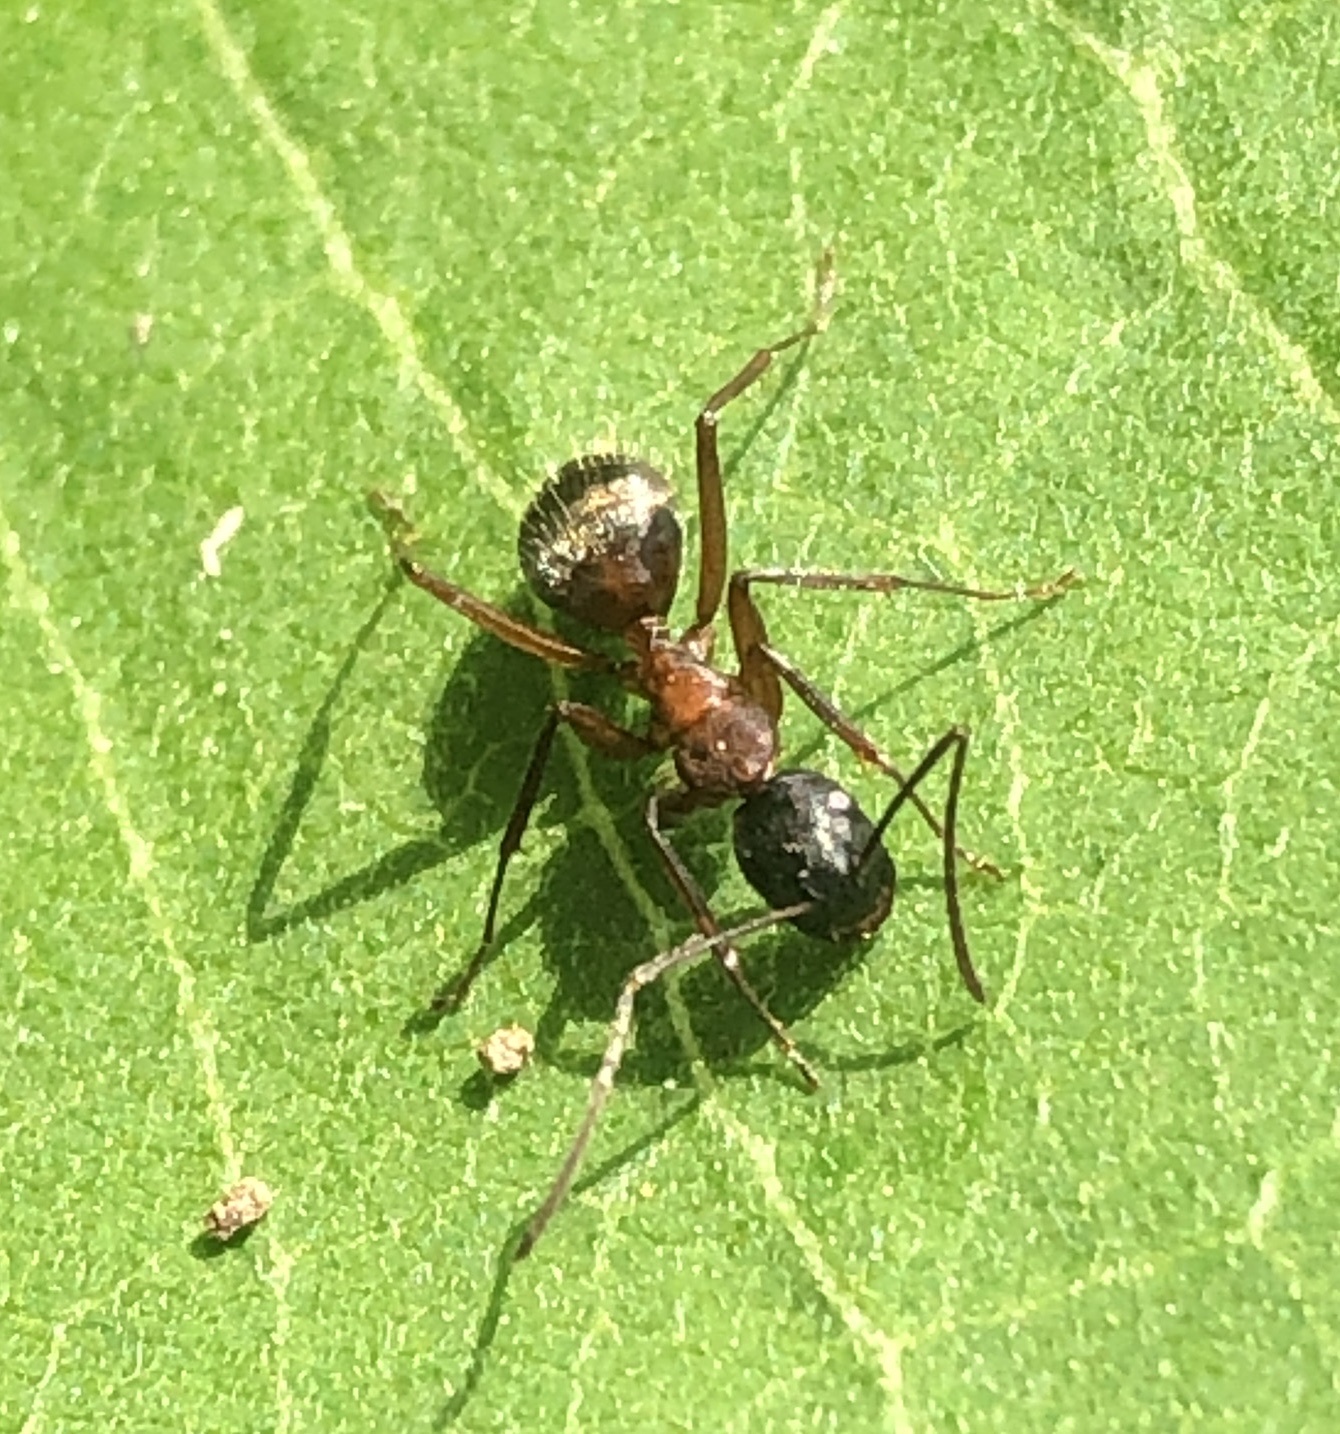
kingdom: Animalia
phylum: Arthropoda
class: Insecta
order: Hymenoptera
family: Formicidae
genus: Camponotus
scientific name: Camponotus chromaiodes
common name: Red carpenter ant
